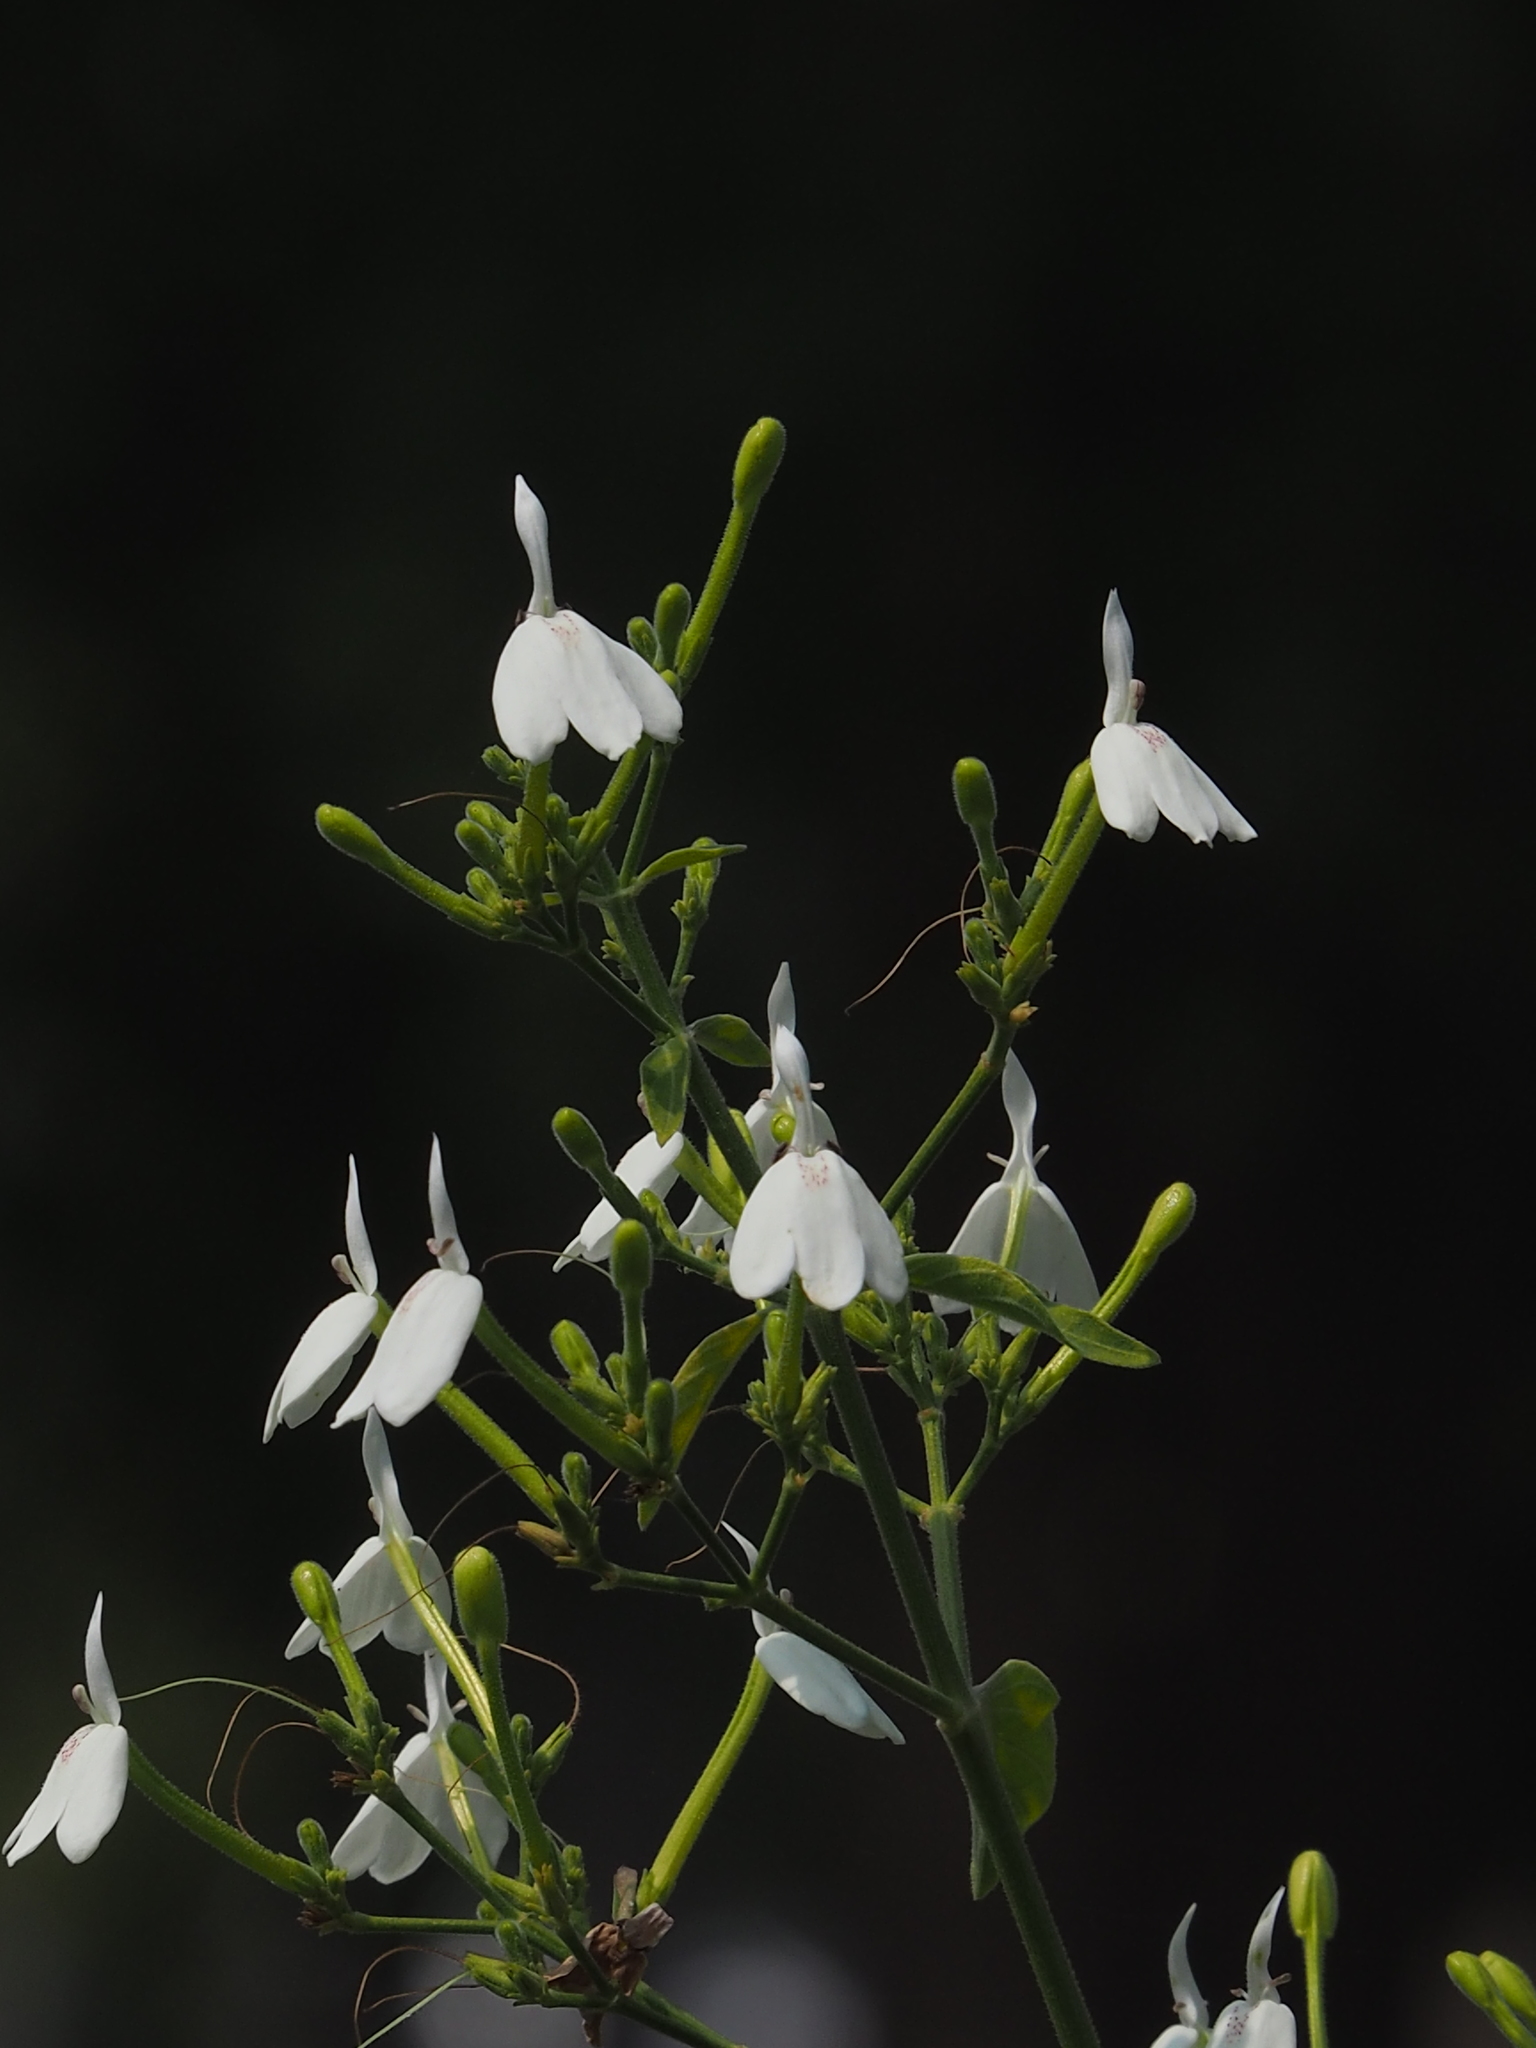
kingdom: Plantae
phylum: Tracheophyta
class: Magnoliopsida
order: Lamiales
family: Acanthaceae
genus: Rhinacanthus
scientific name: Rhinacanthus nasutus
